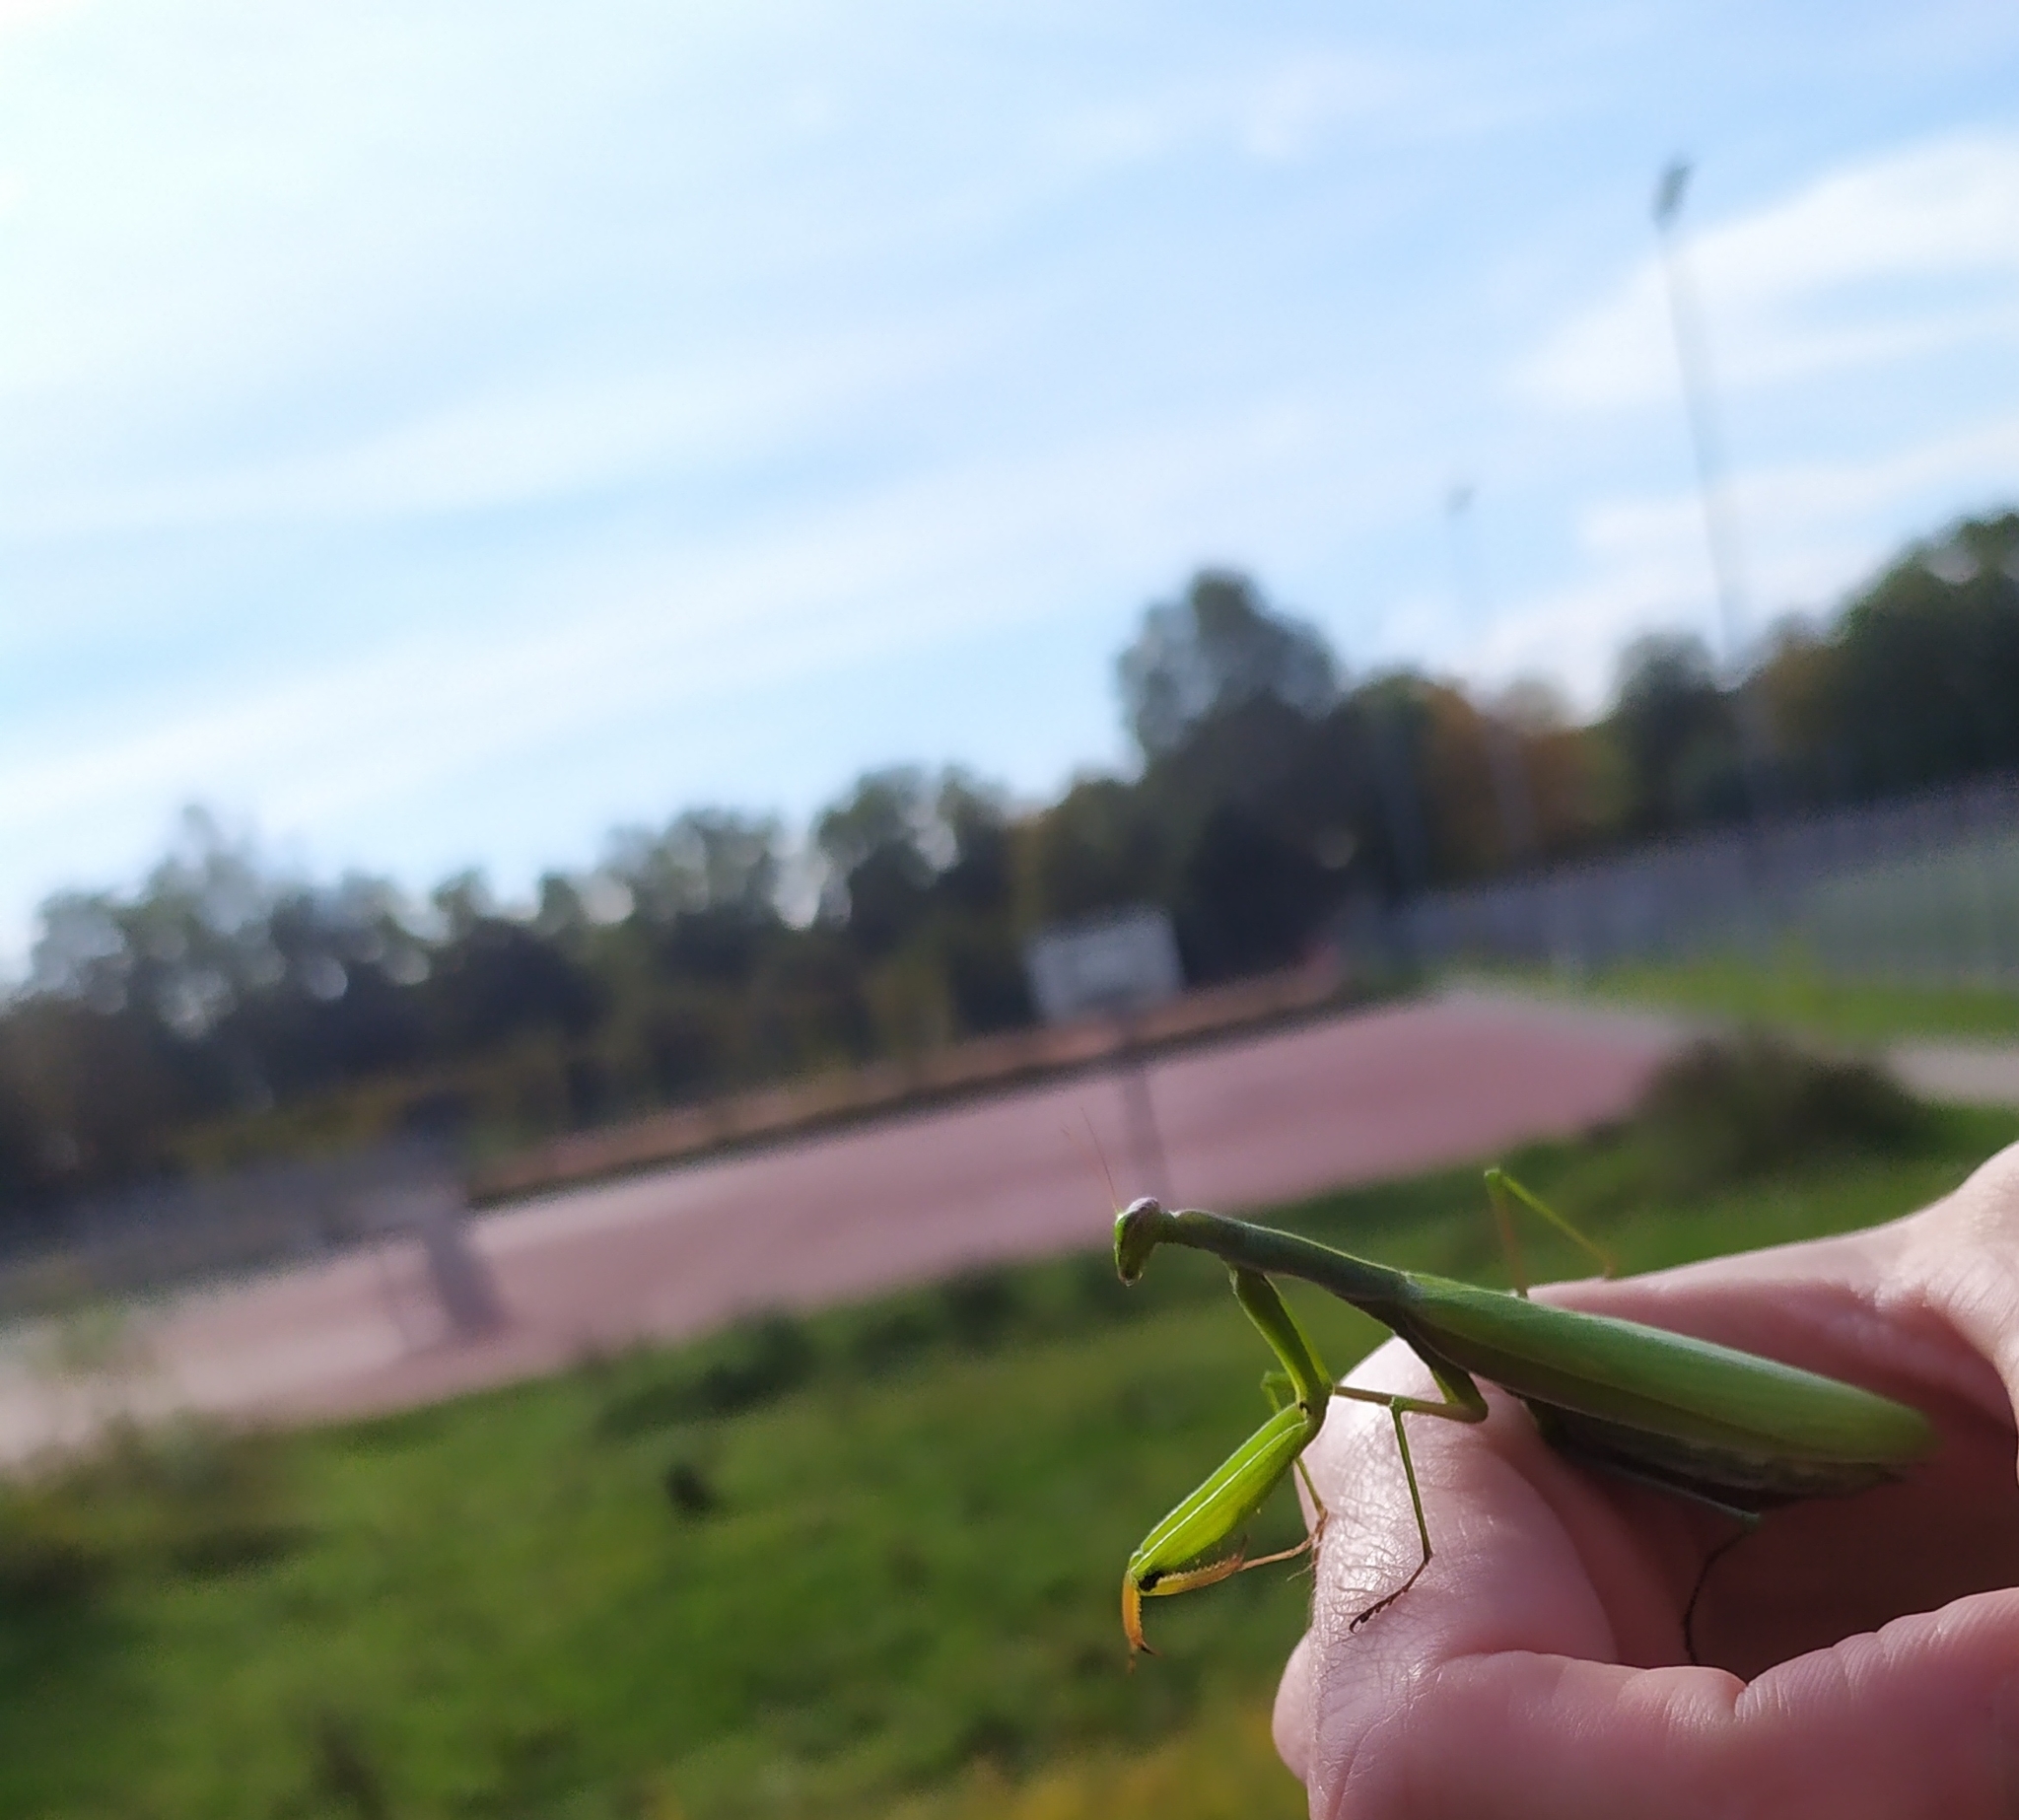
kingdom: Animalia
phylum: Arthropoda
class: Insecta
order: Mantodea
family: Mantidae
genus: Mantis
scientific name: Mantis religiosa
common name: Praying mantis
